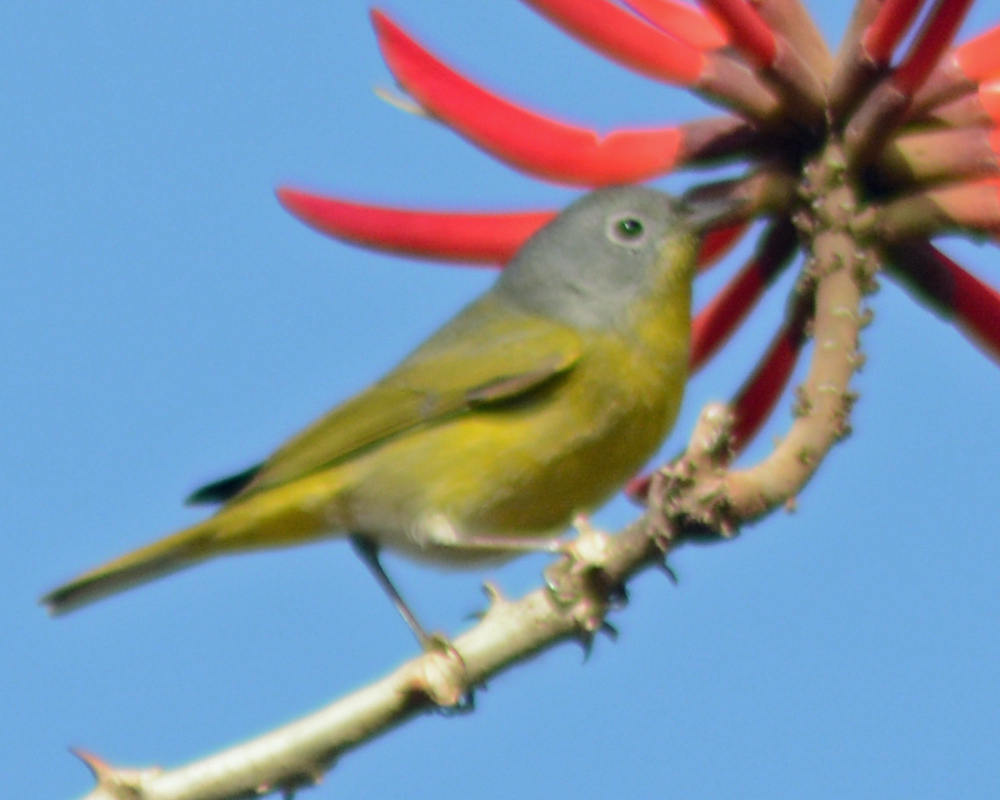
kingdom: Animalia
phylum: Chordata
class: Aves
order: Passeriformes
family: Parulidae
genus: Leiothlypis
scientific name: Leiothlypis ruficapilla
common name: Nashville warbler
